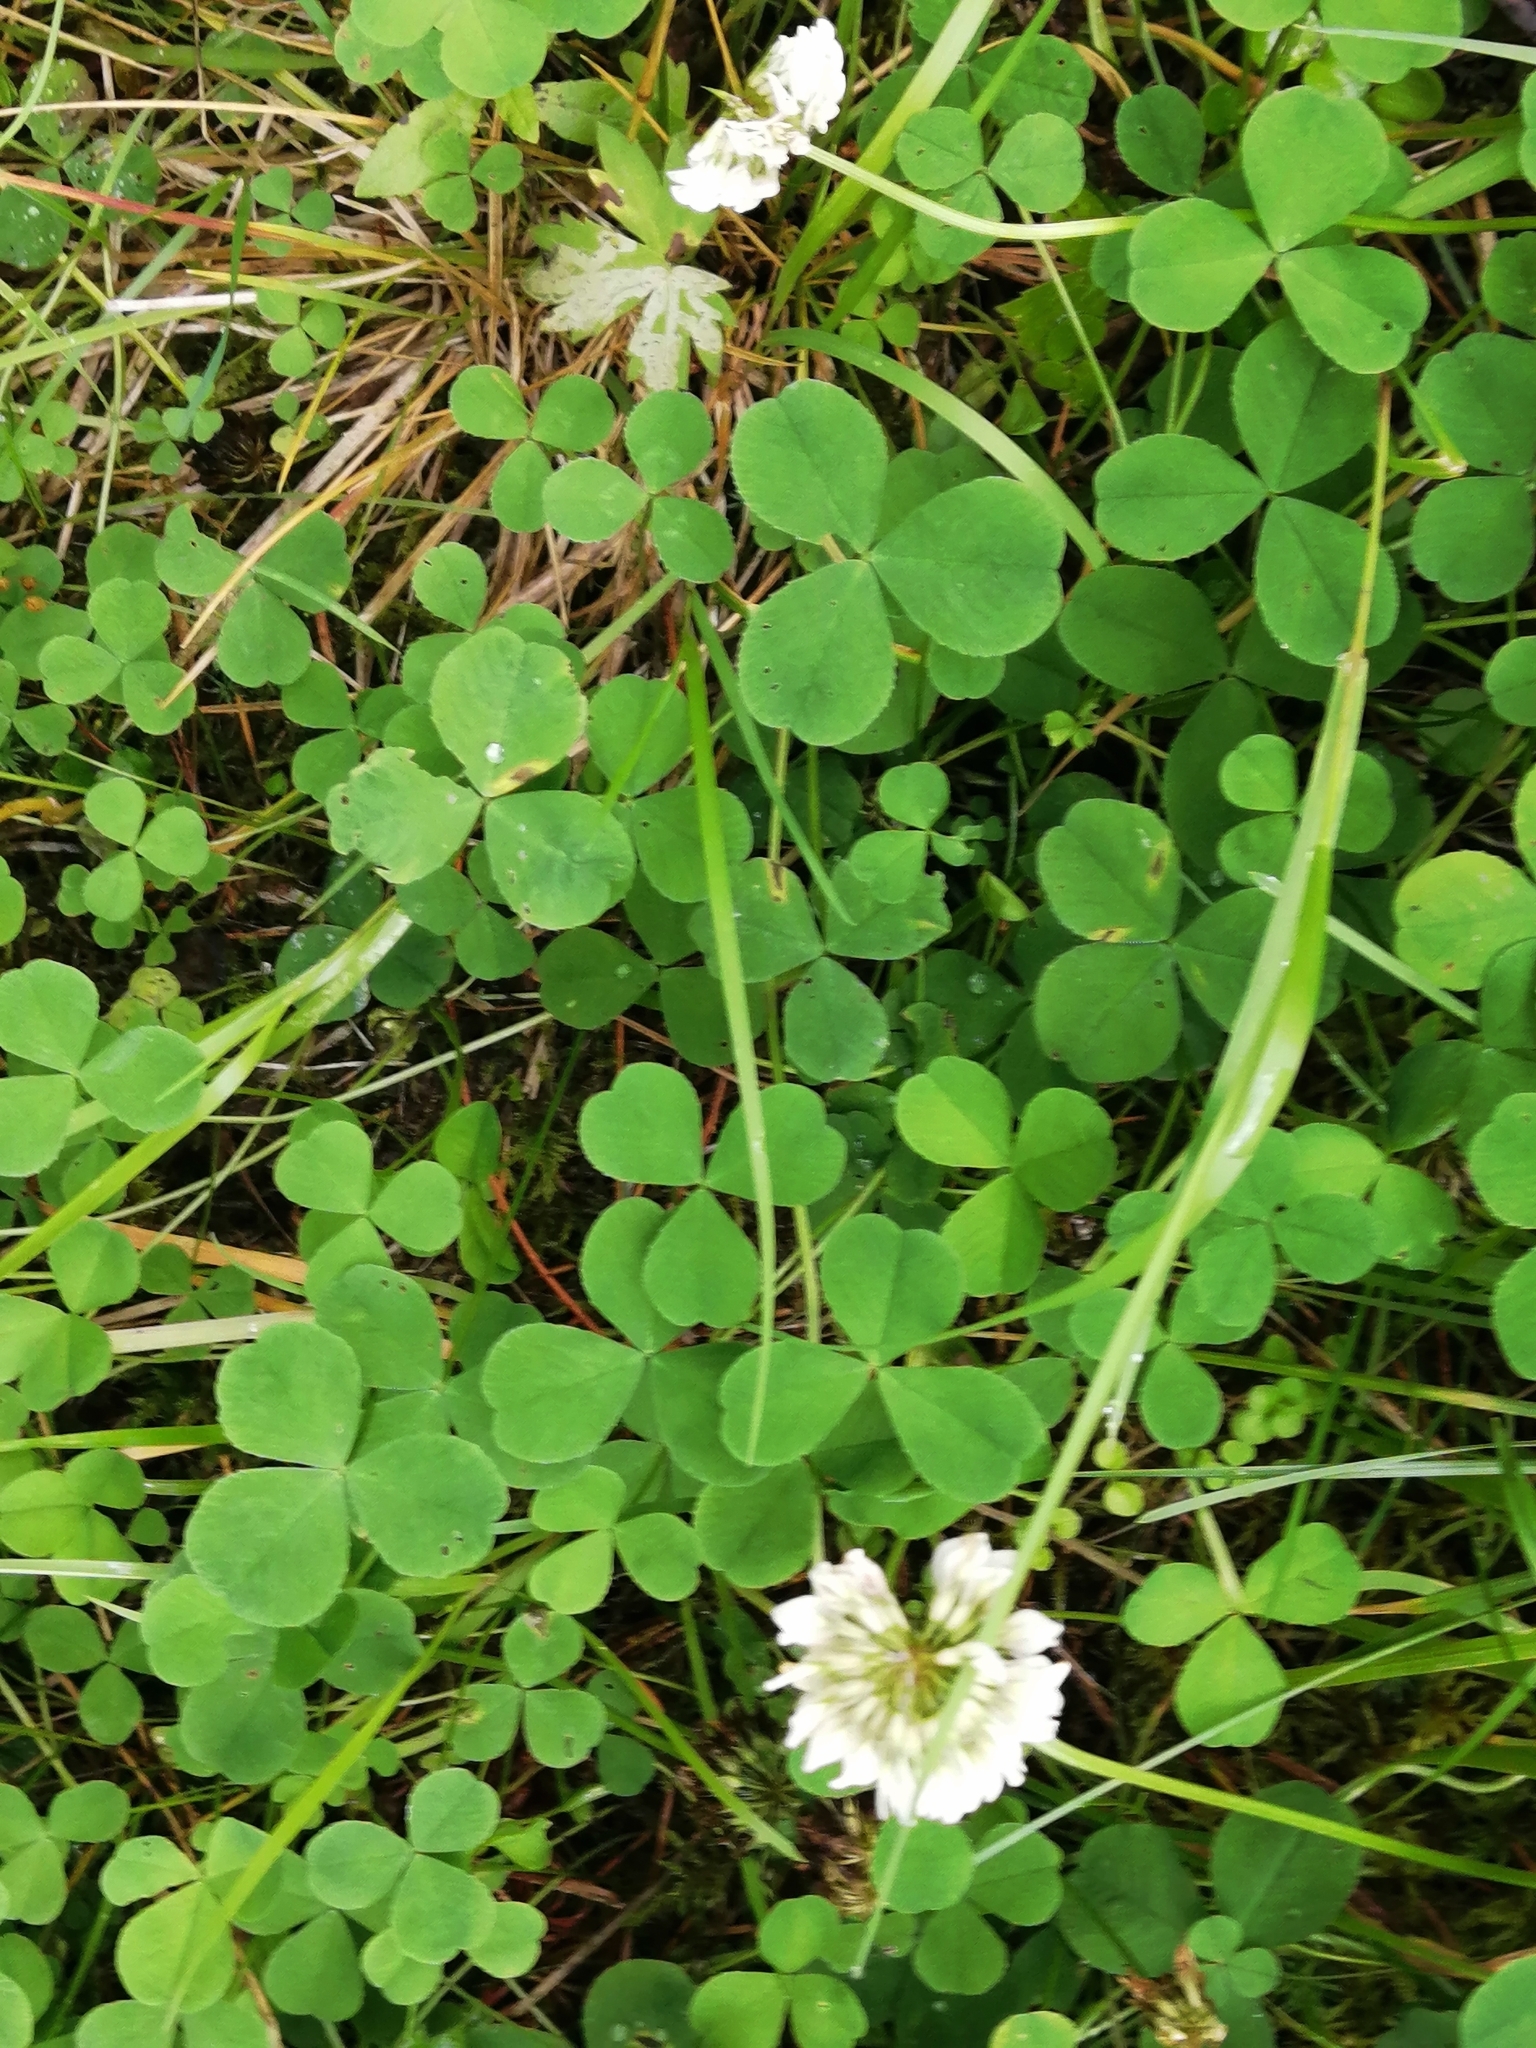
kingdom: Plantae
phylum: Tracheophyta
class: Magnoliopsida
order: Fabales
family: Fabaceae
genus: Trifolium
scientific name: Trifolium repens
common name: White clover
